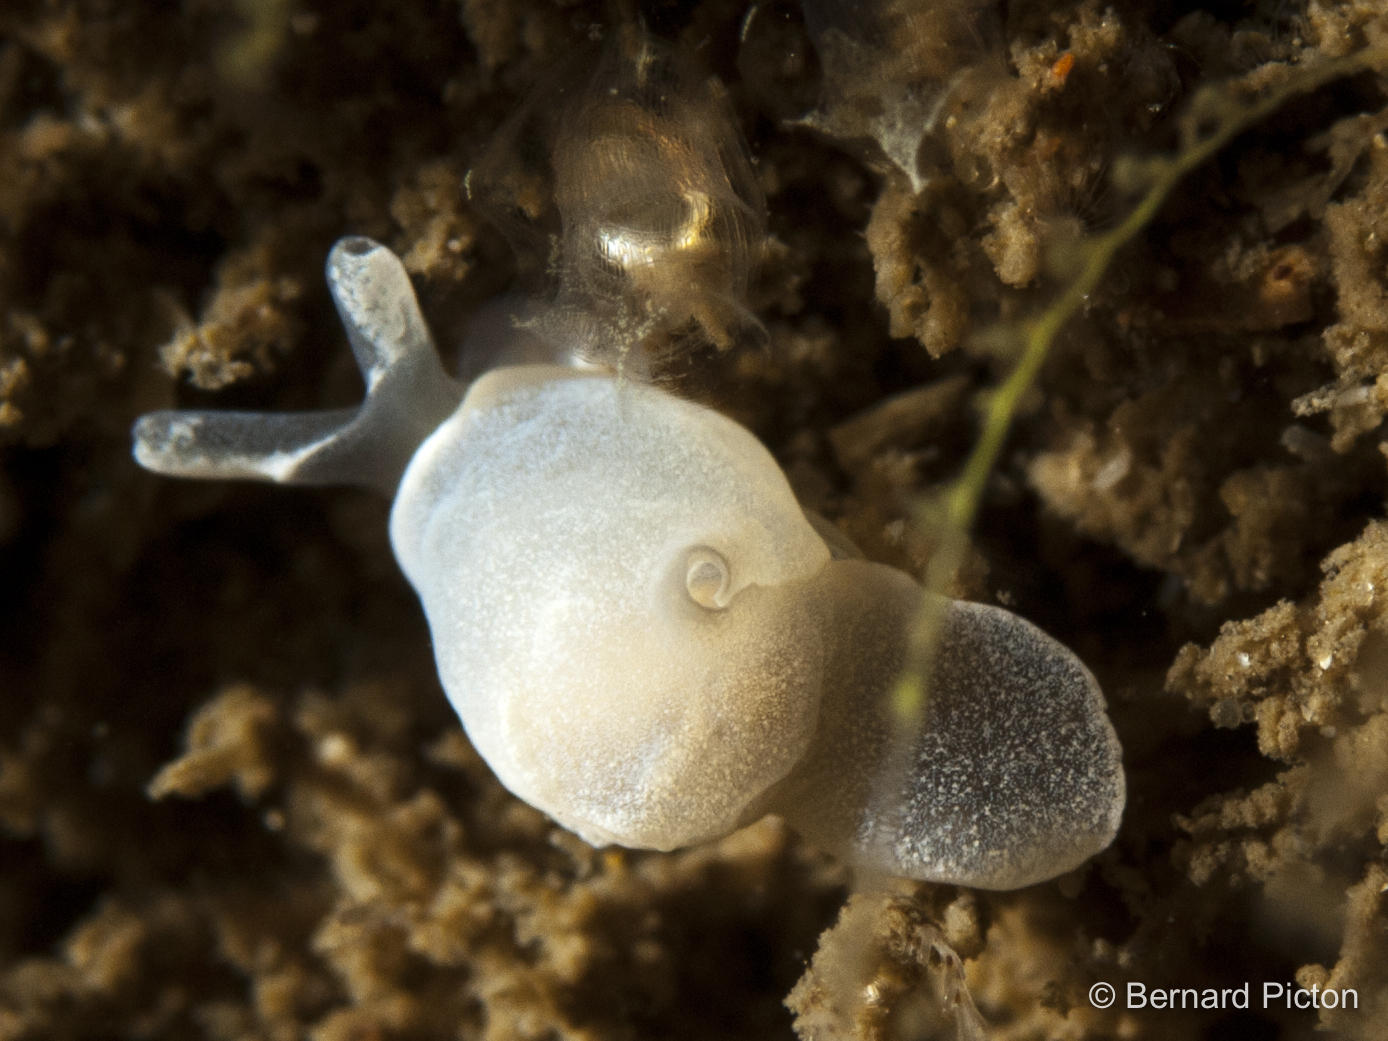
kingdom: Animalia
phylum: Mollusca
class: Gastropoda
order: Cephalaspidea
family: Colpodaspididae
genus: Colpodaspis
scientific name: Colpodaspis pusilla
